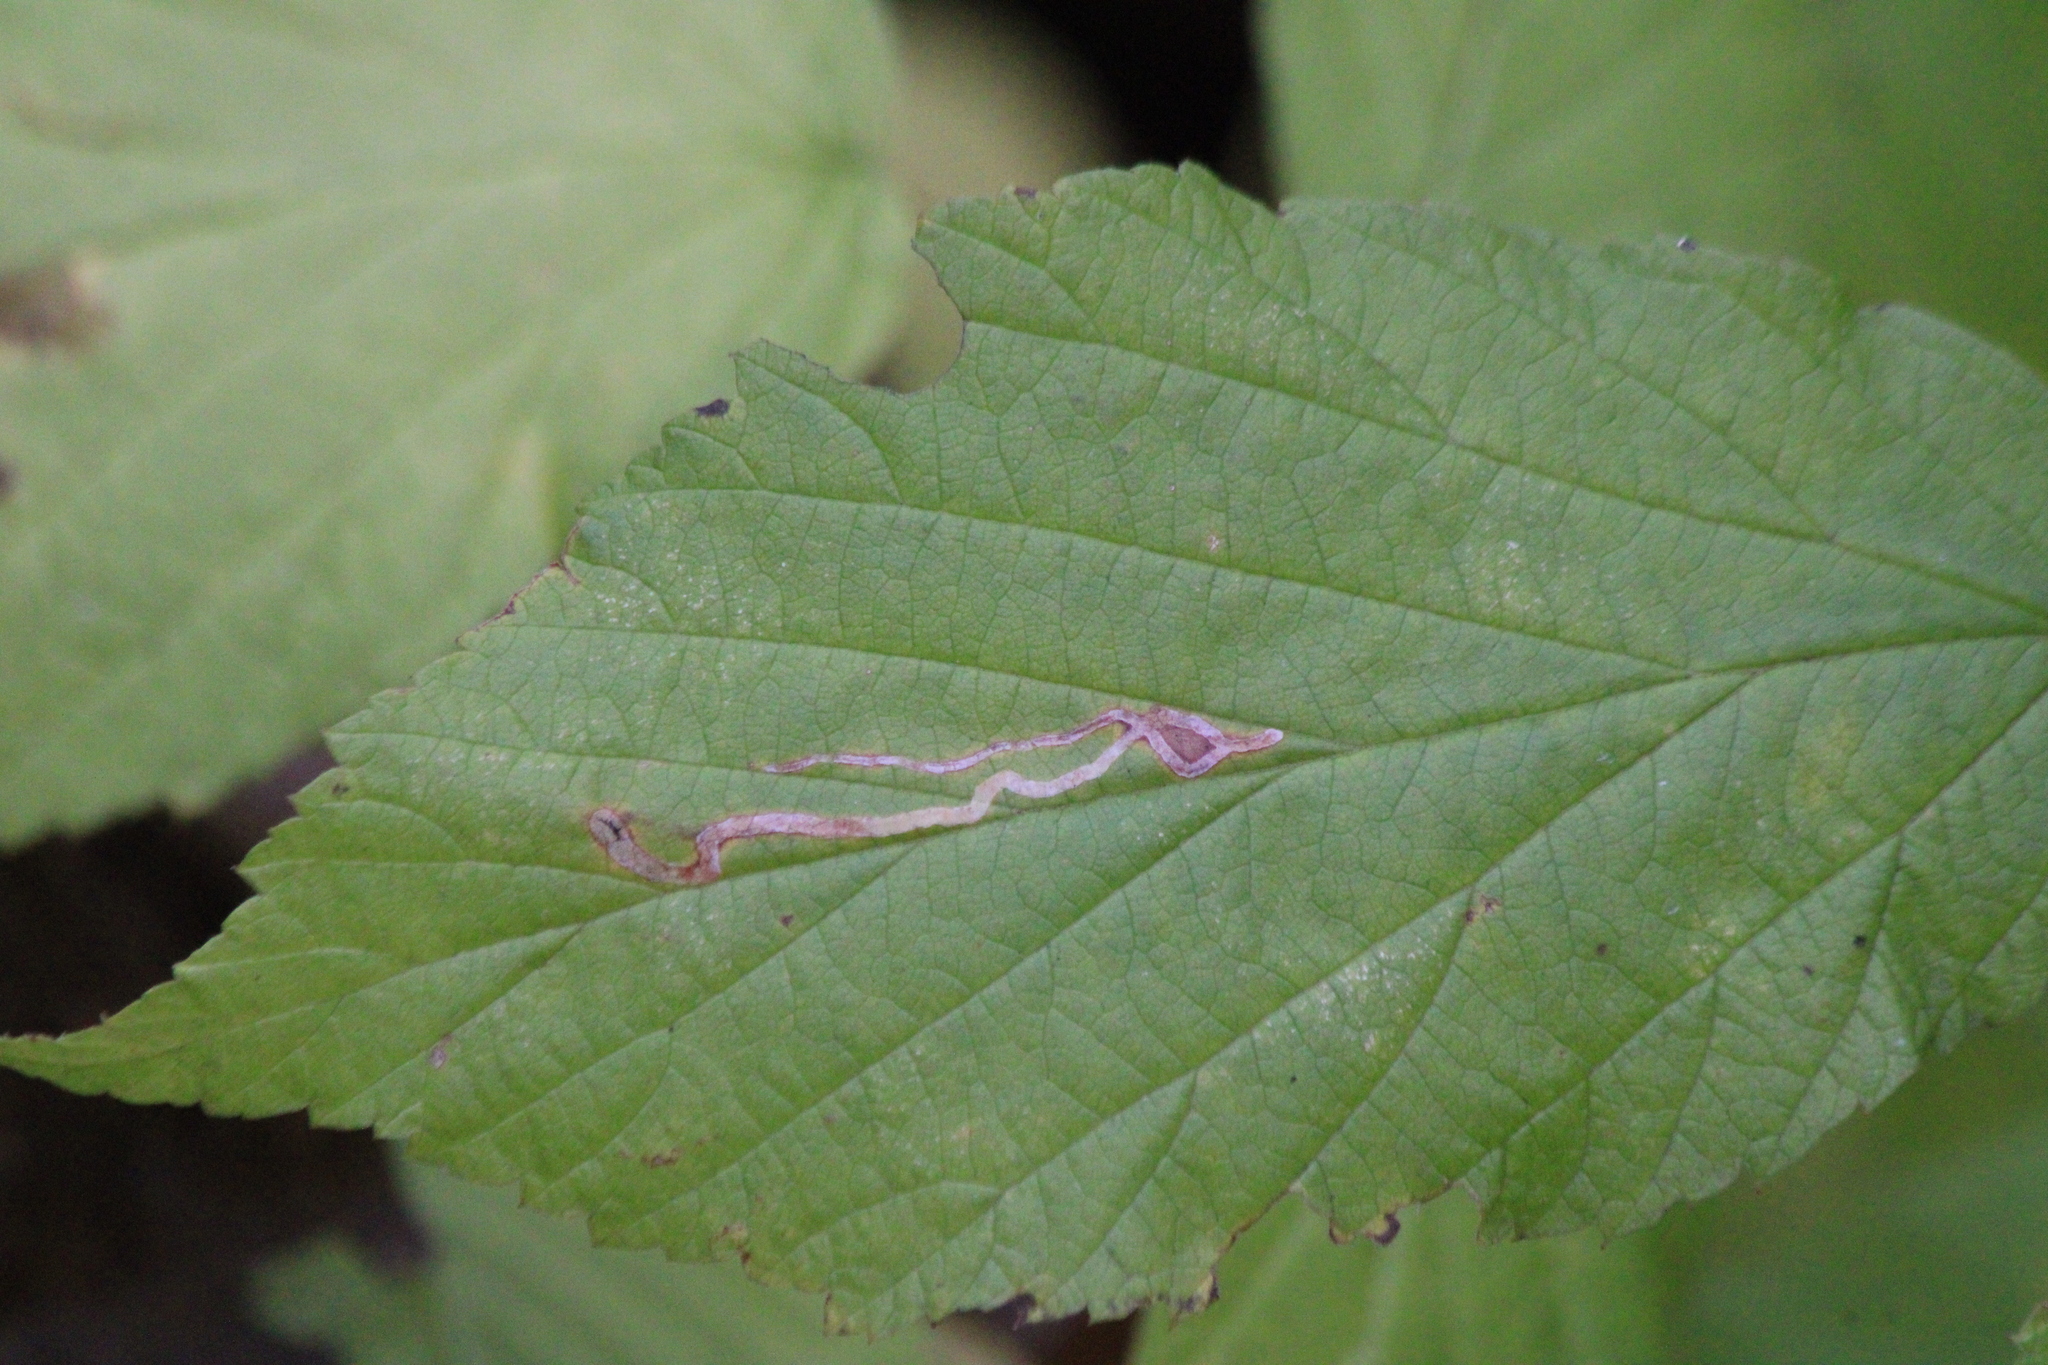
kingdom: Animalia
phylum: Arthropoda
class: Insecta
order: Diptera
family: Agromyzidae
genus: Agromyza
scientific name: Agromyza vockerothi
